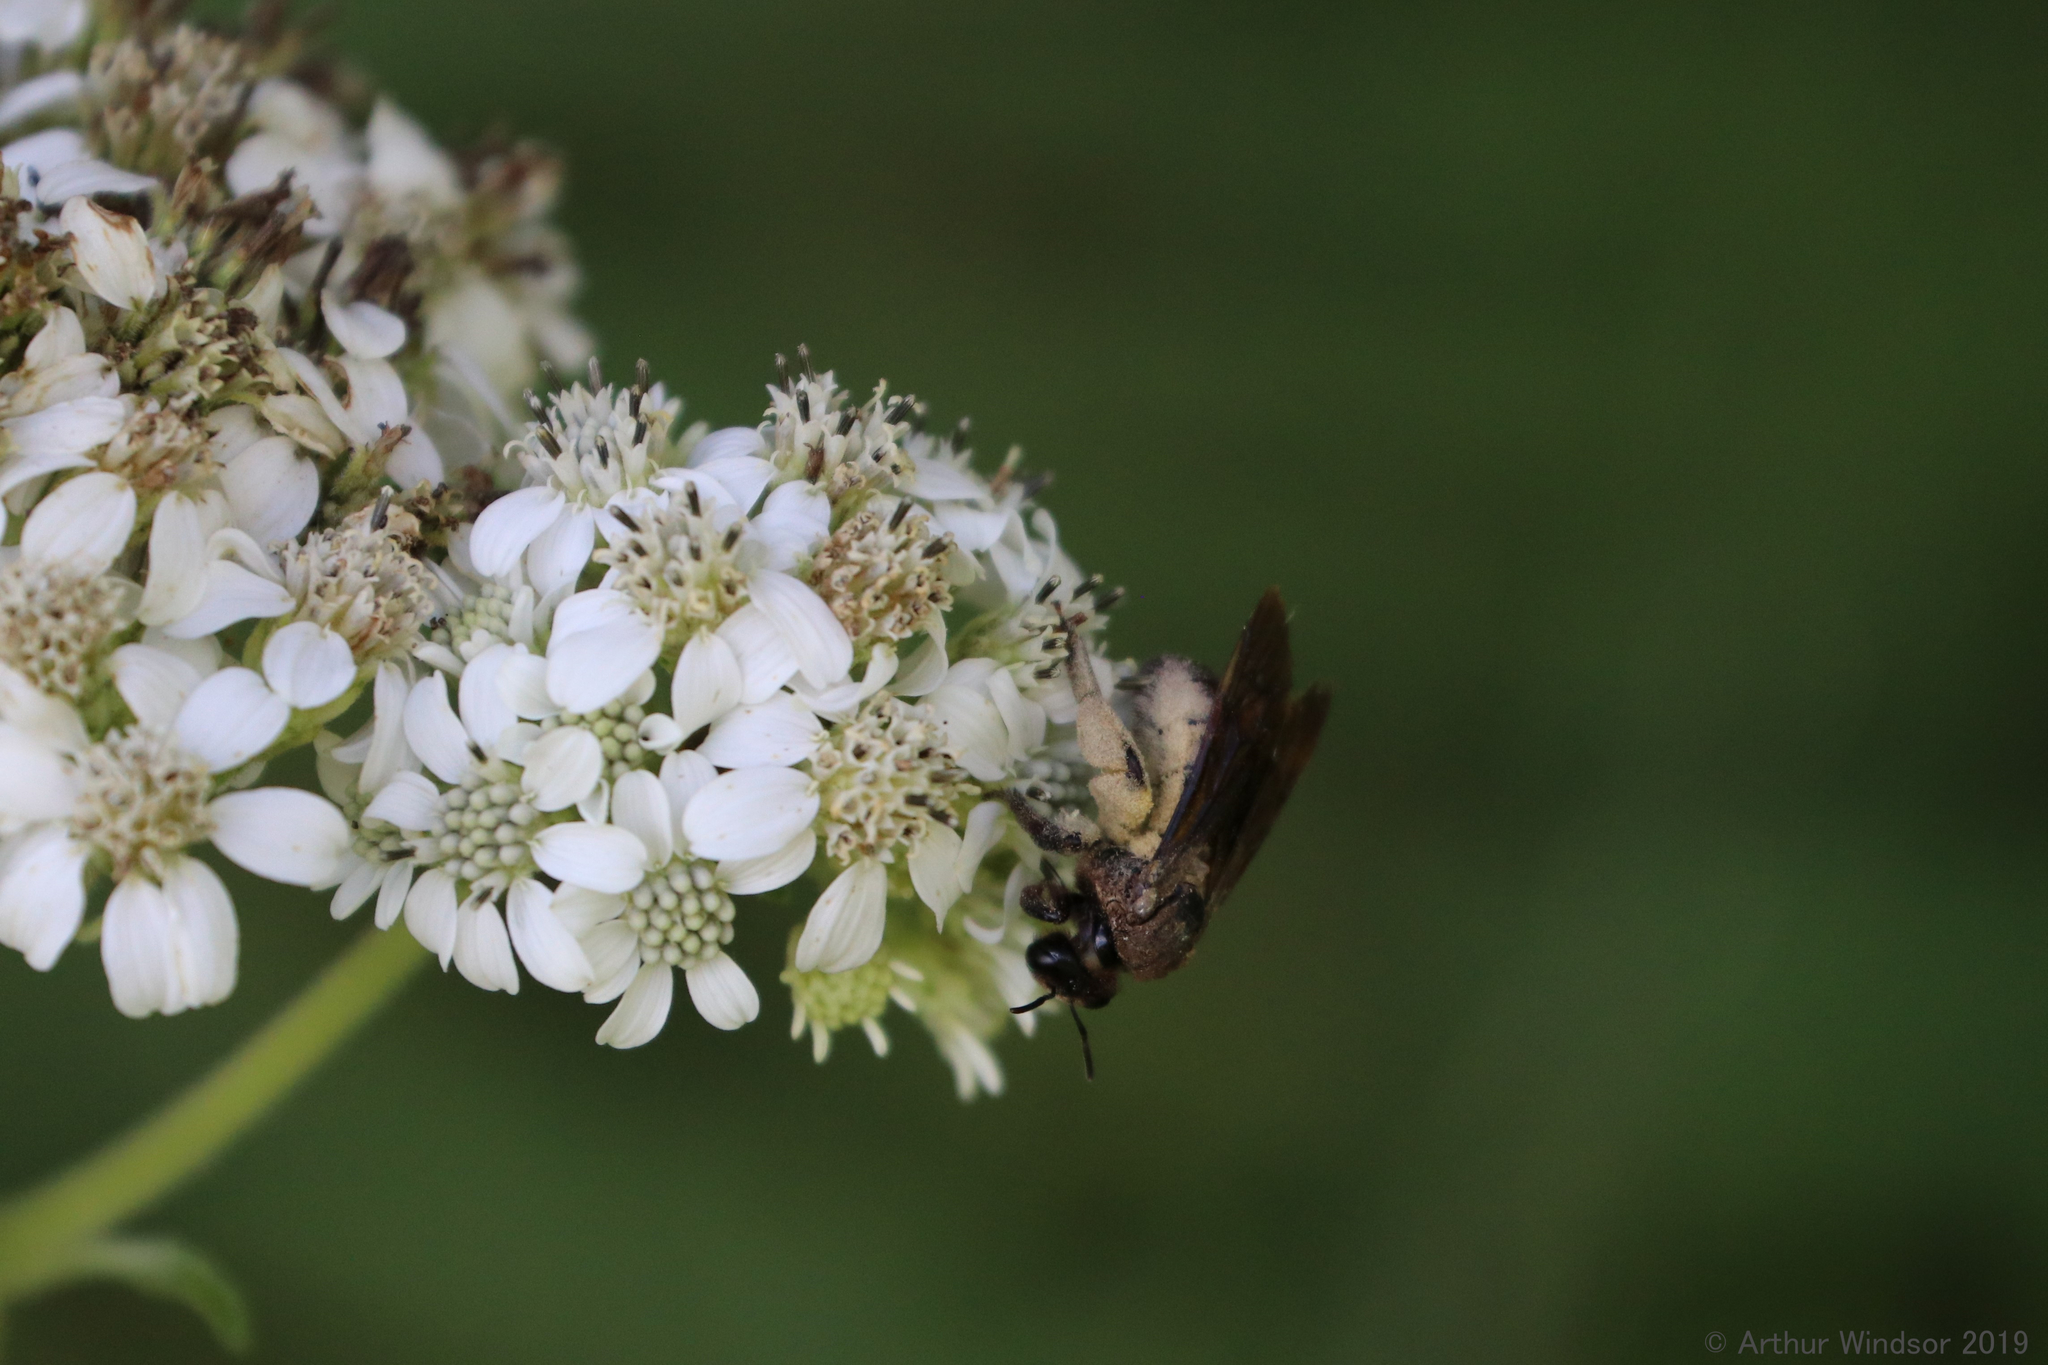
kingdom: Animalia
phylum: Arthropoda
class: Insecta
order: Hymenoptera
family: Halictidae
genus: Dieunomia
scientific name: Dieunomia heteropoda
